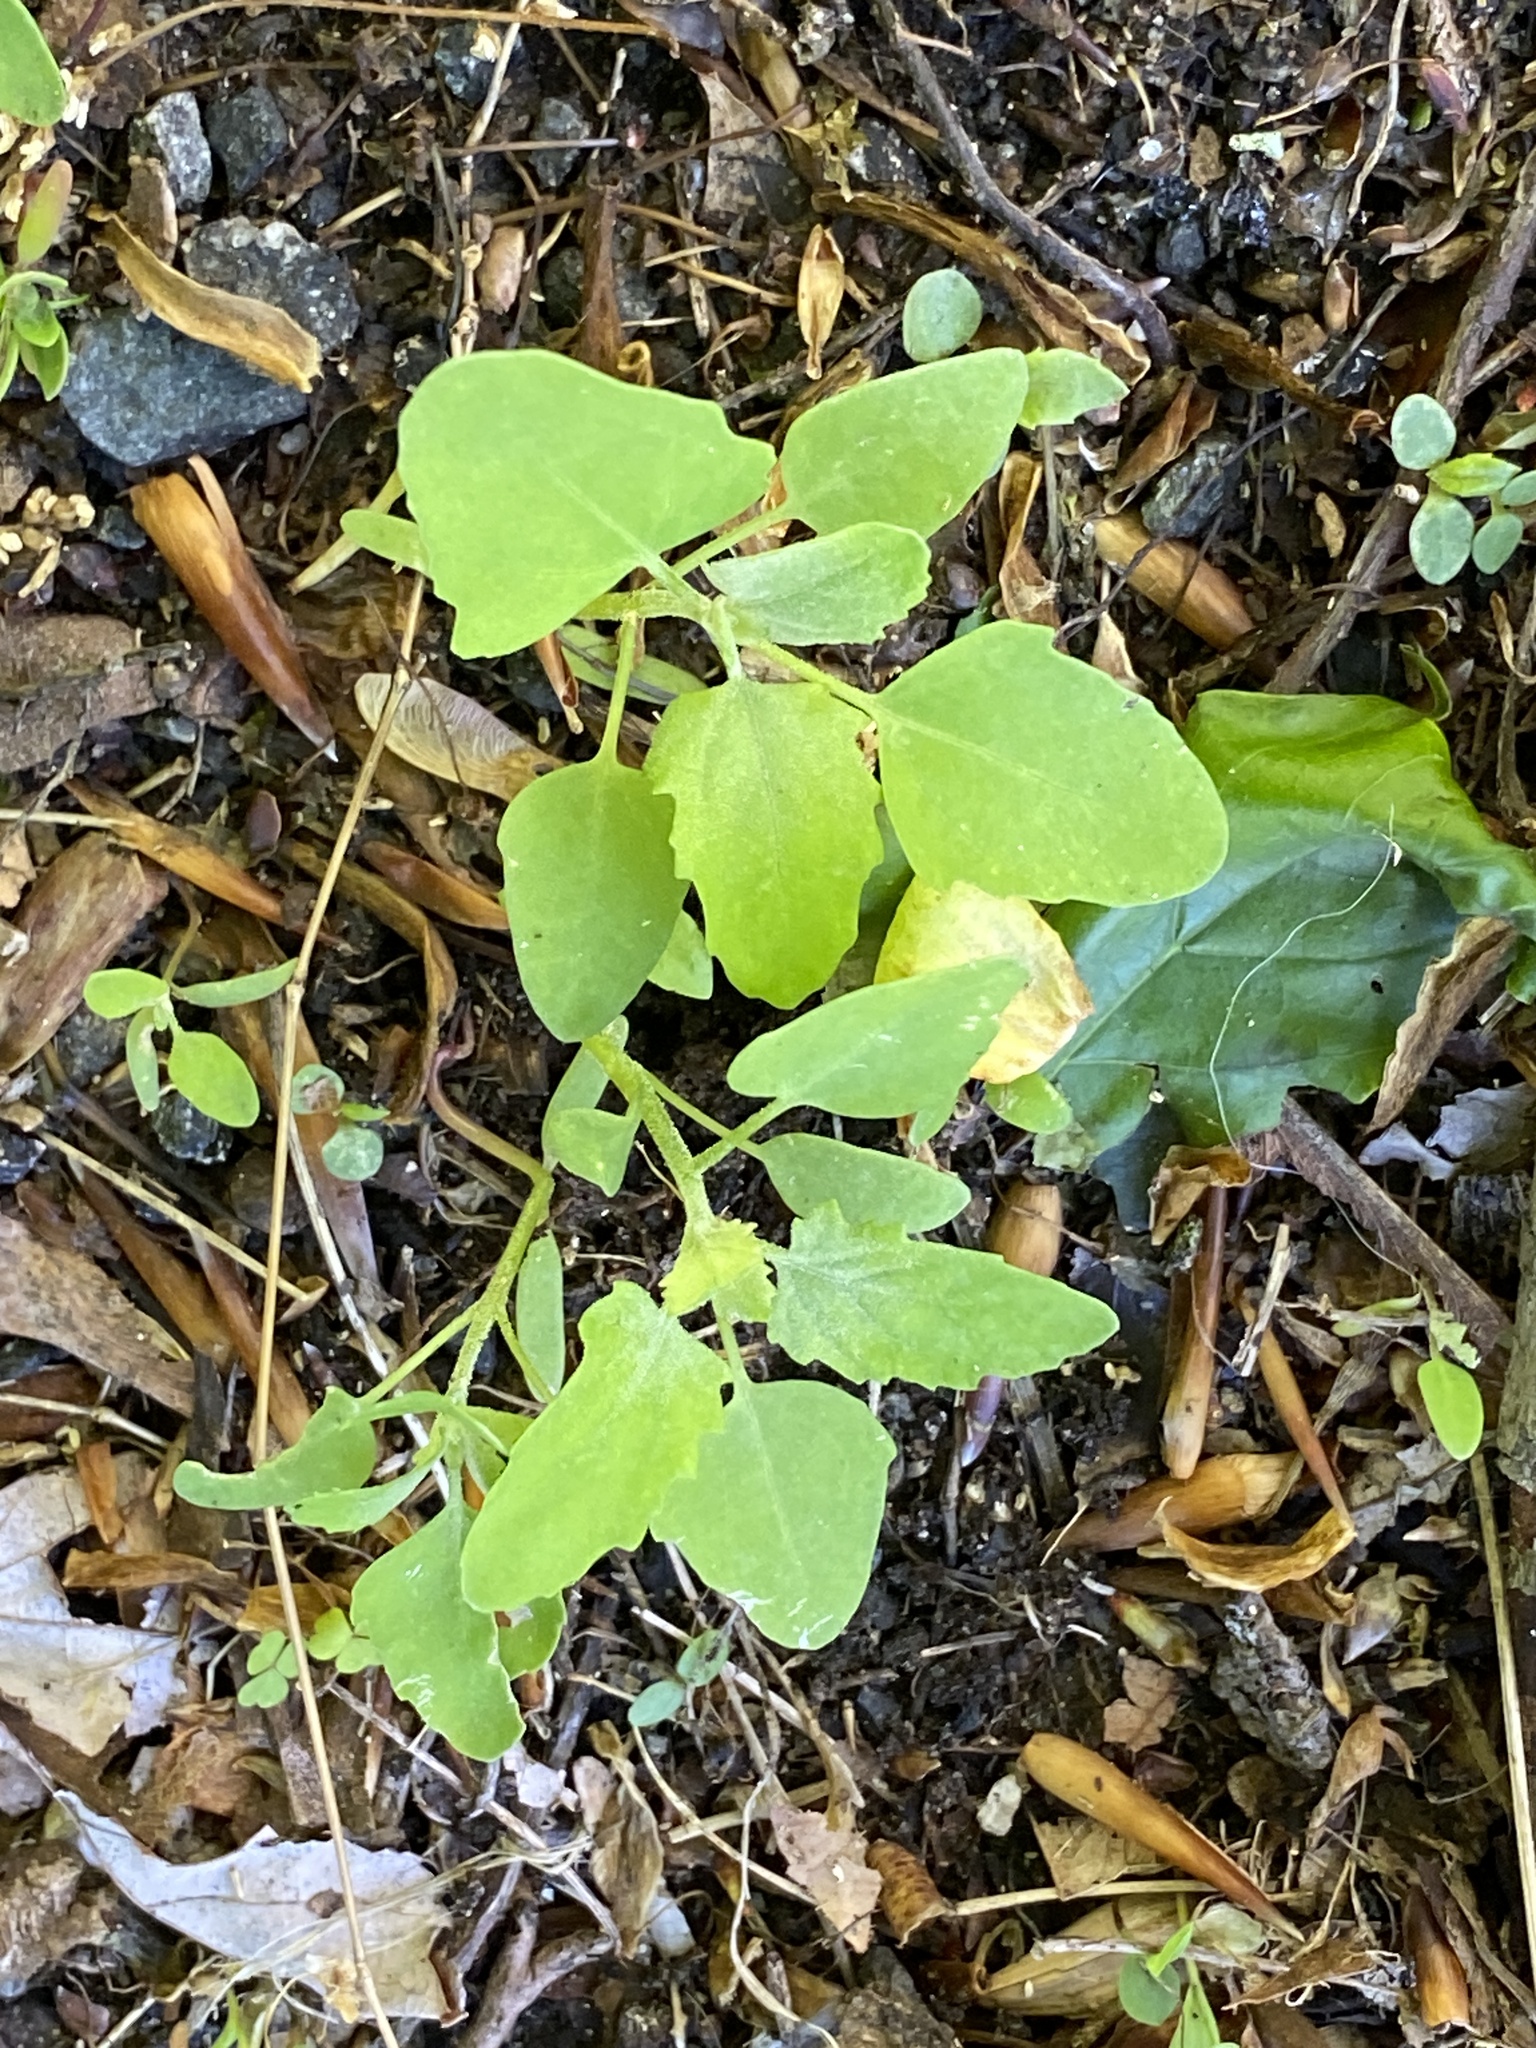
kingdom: Plantae
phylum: Tracheophyta
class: Magnoliopsida
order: Caryophyllales
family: Amaranthaceae
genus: Chenopodium
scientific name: Chenopodium album
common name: Fat-hen
